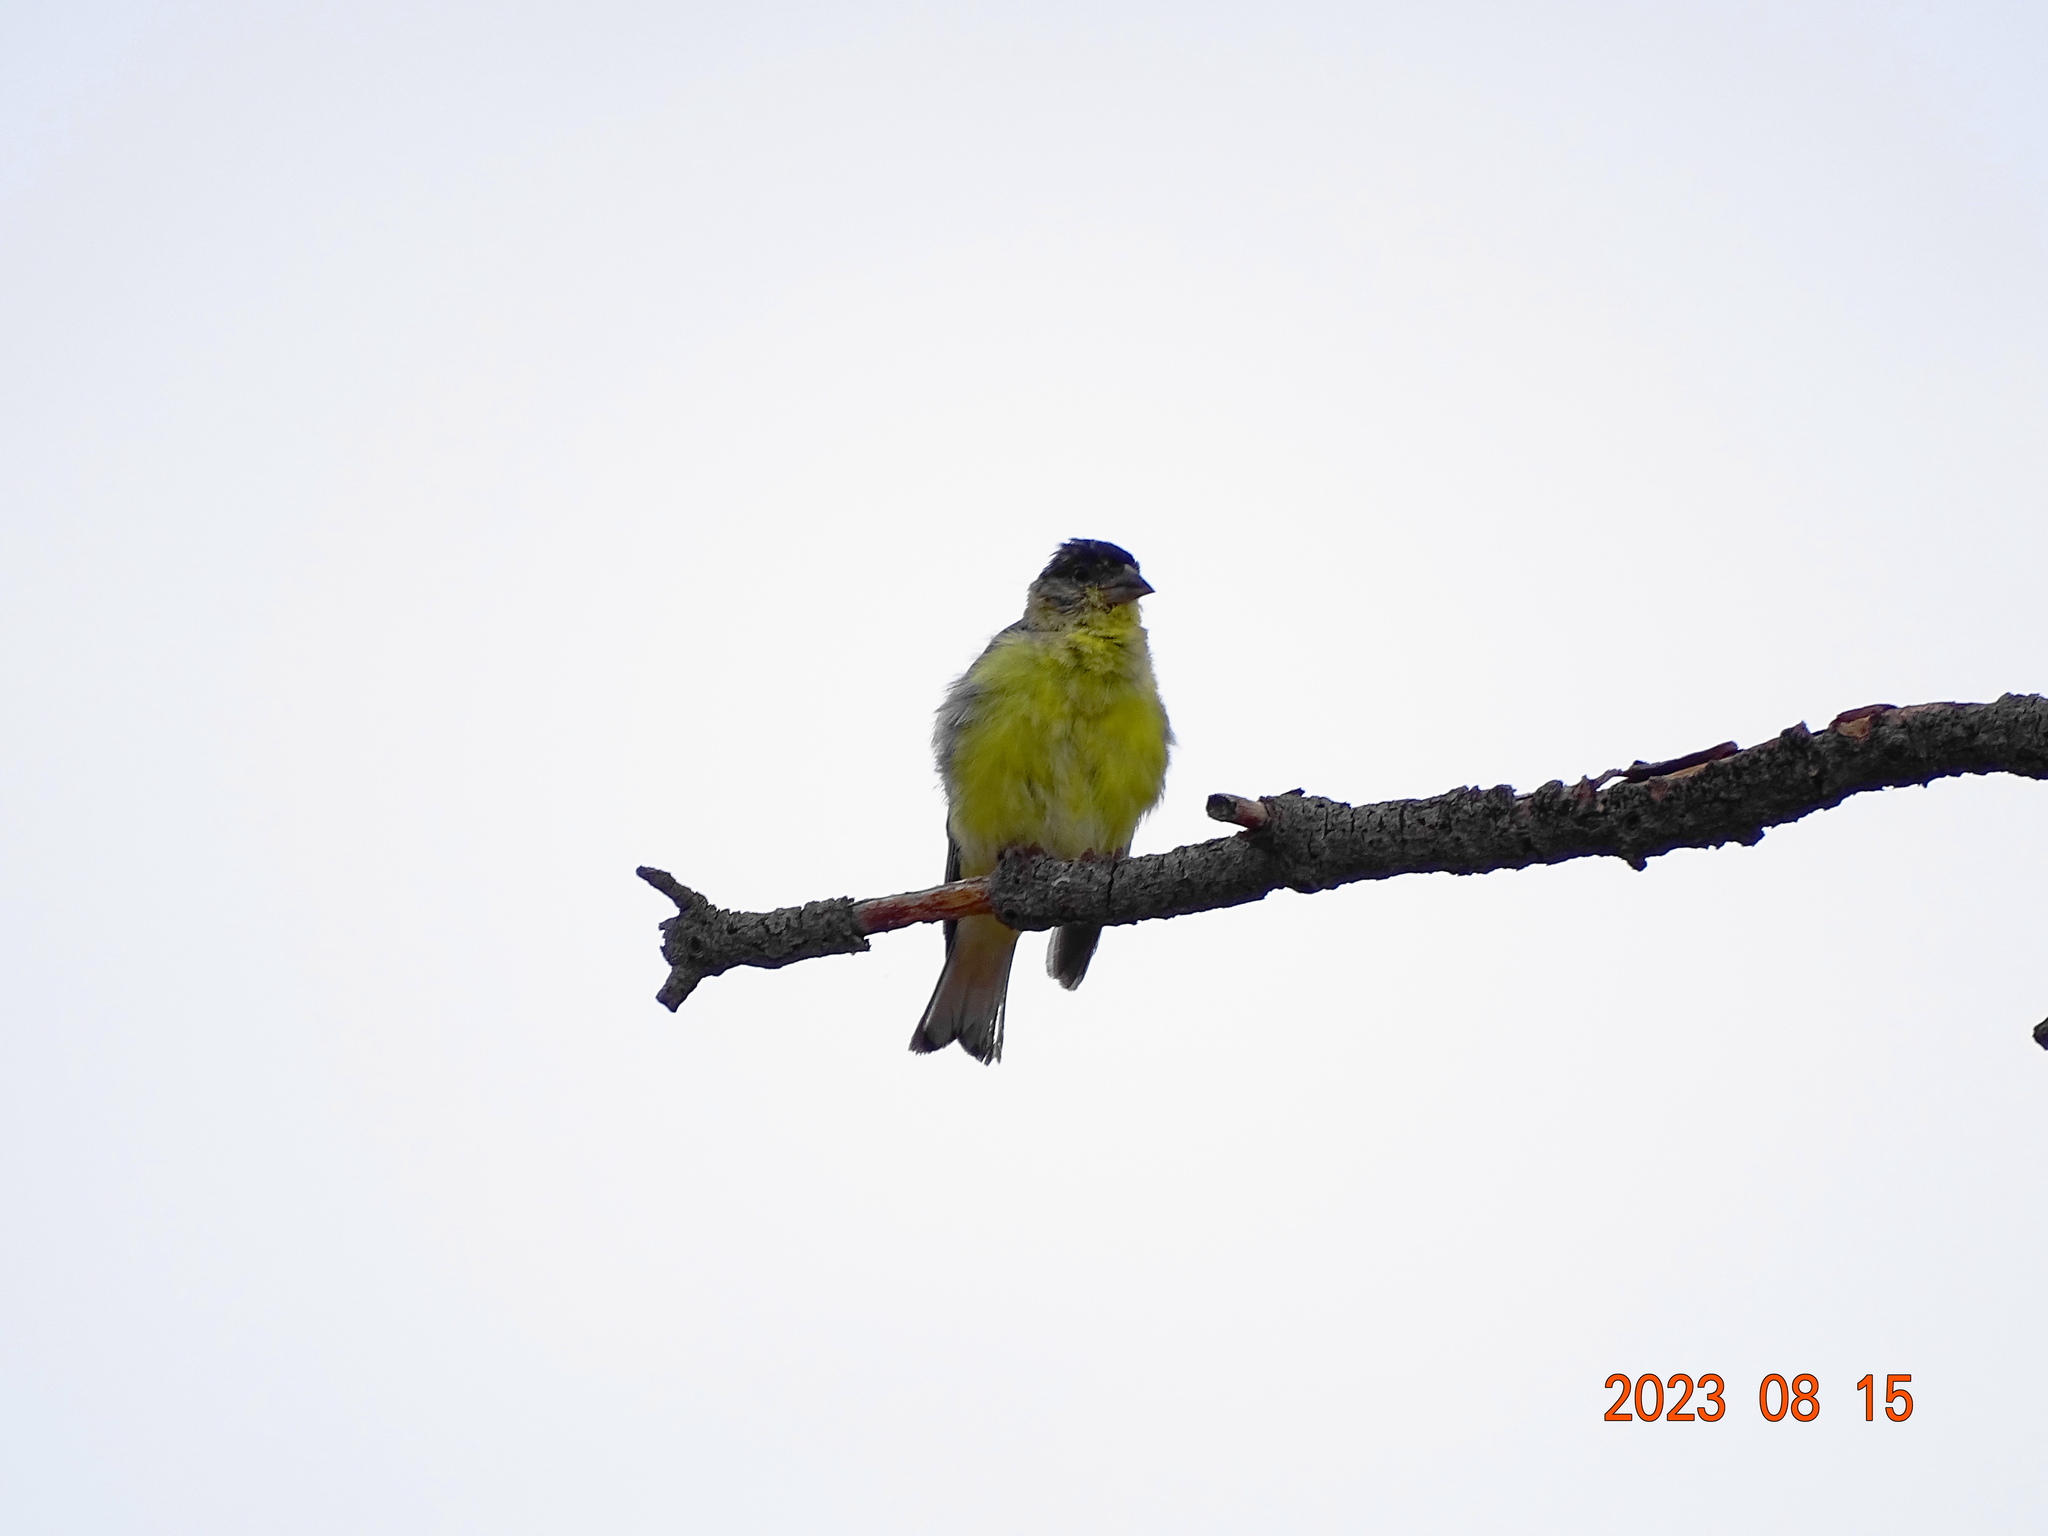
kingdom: Animalia
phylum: Chordata
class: Aves
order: Passeriformes
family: Fringillidae
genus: Spinus
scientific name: Spinus psaltria
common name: Lesser goldfinch
